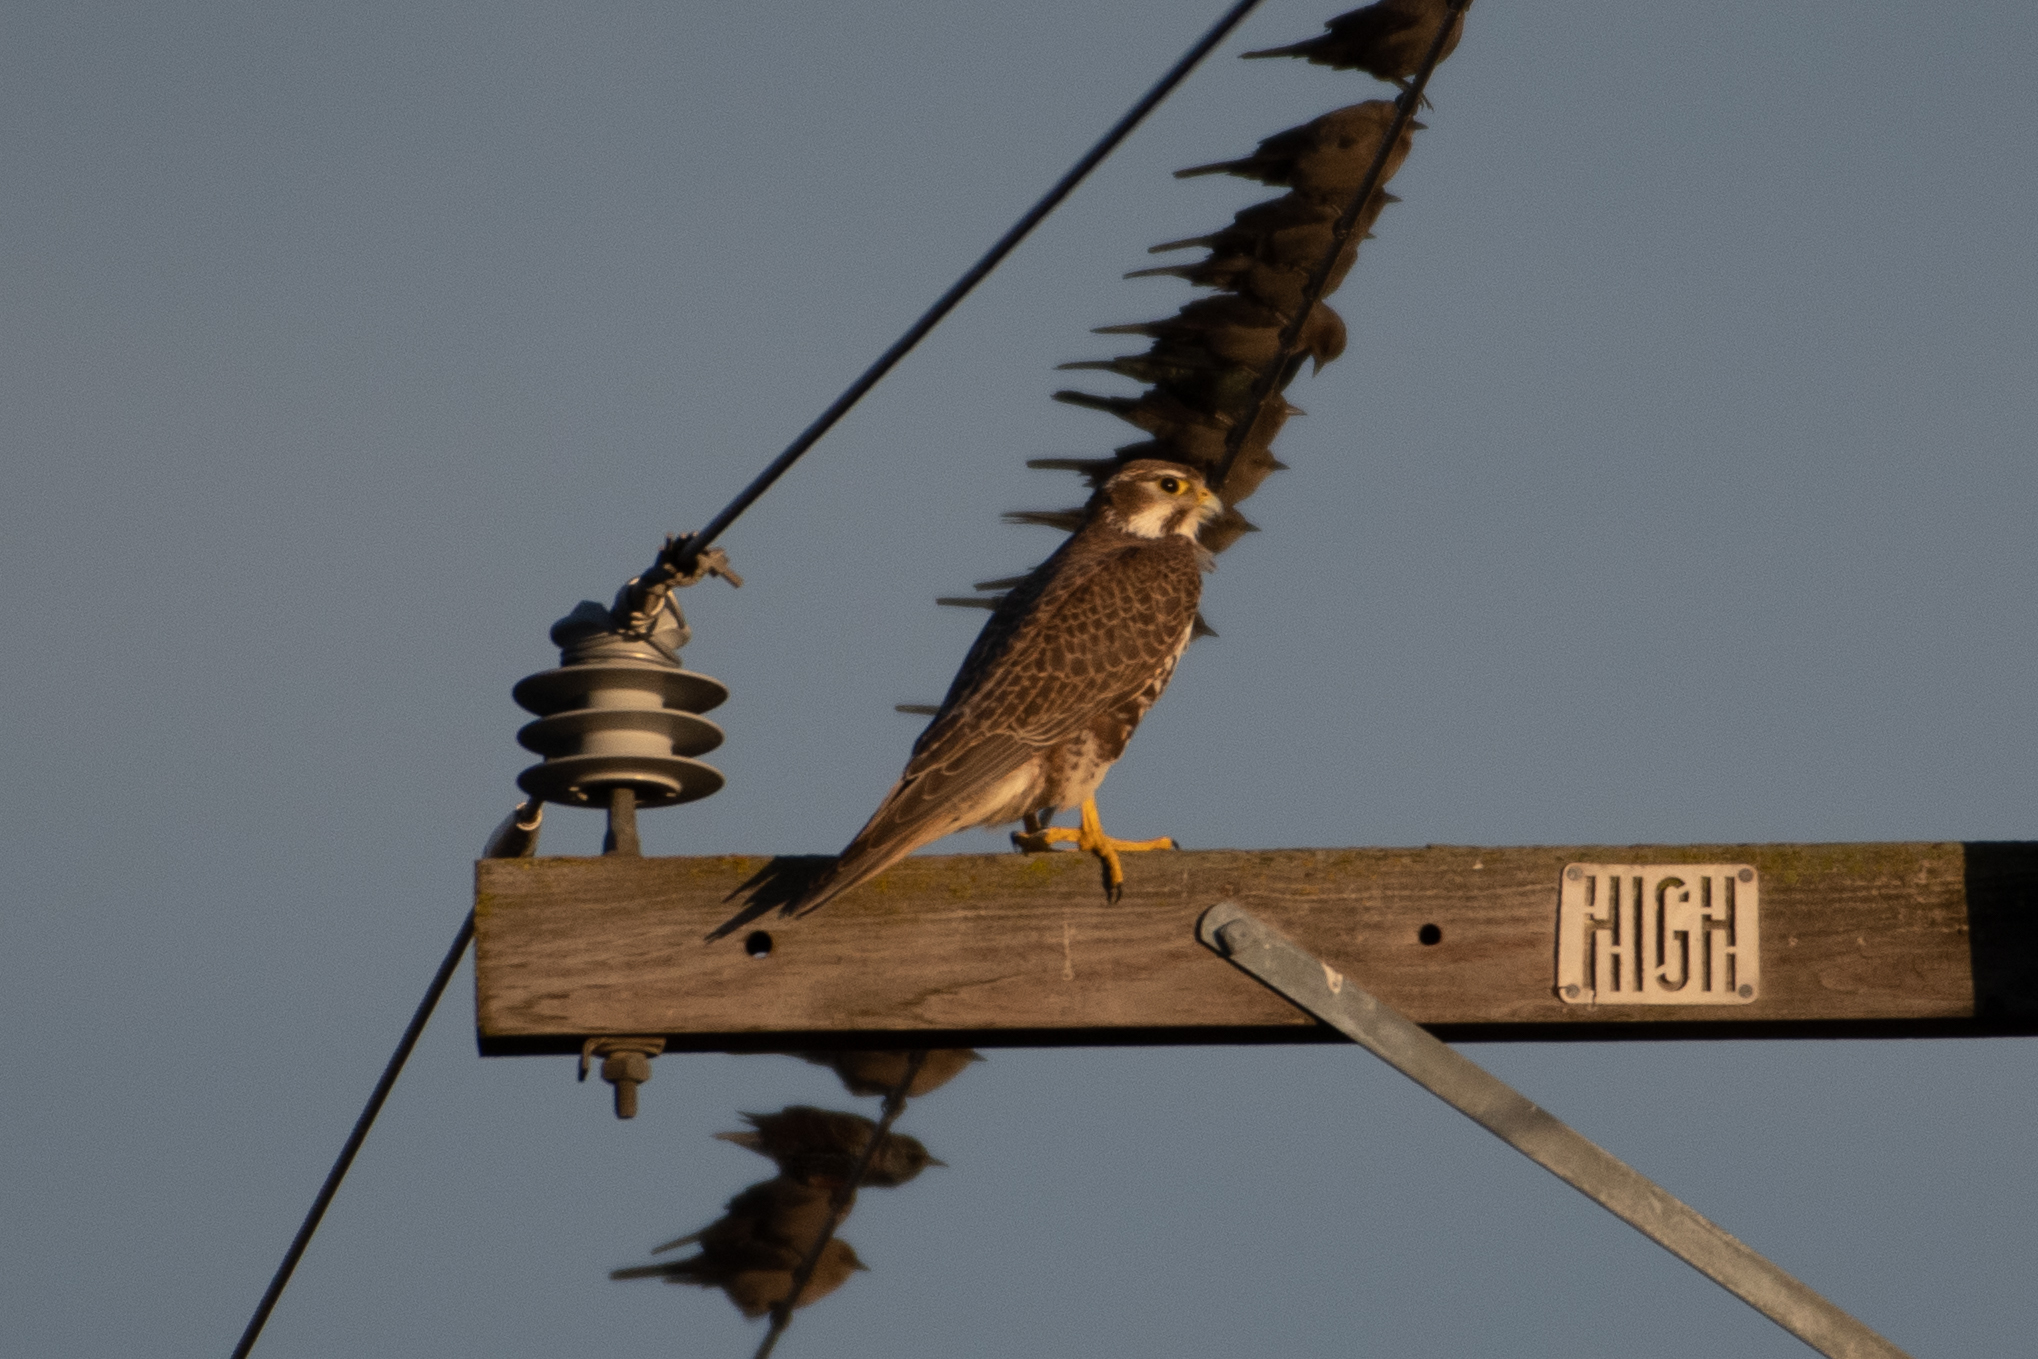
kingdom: Animalia
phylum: Chordata
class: Aves
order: Falconiformes
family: Falconidae
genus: Falco
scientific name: Falco mexicanus
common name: Prairie falcon
